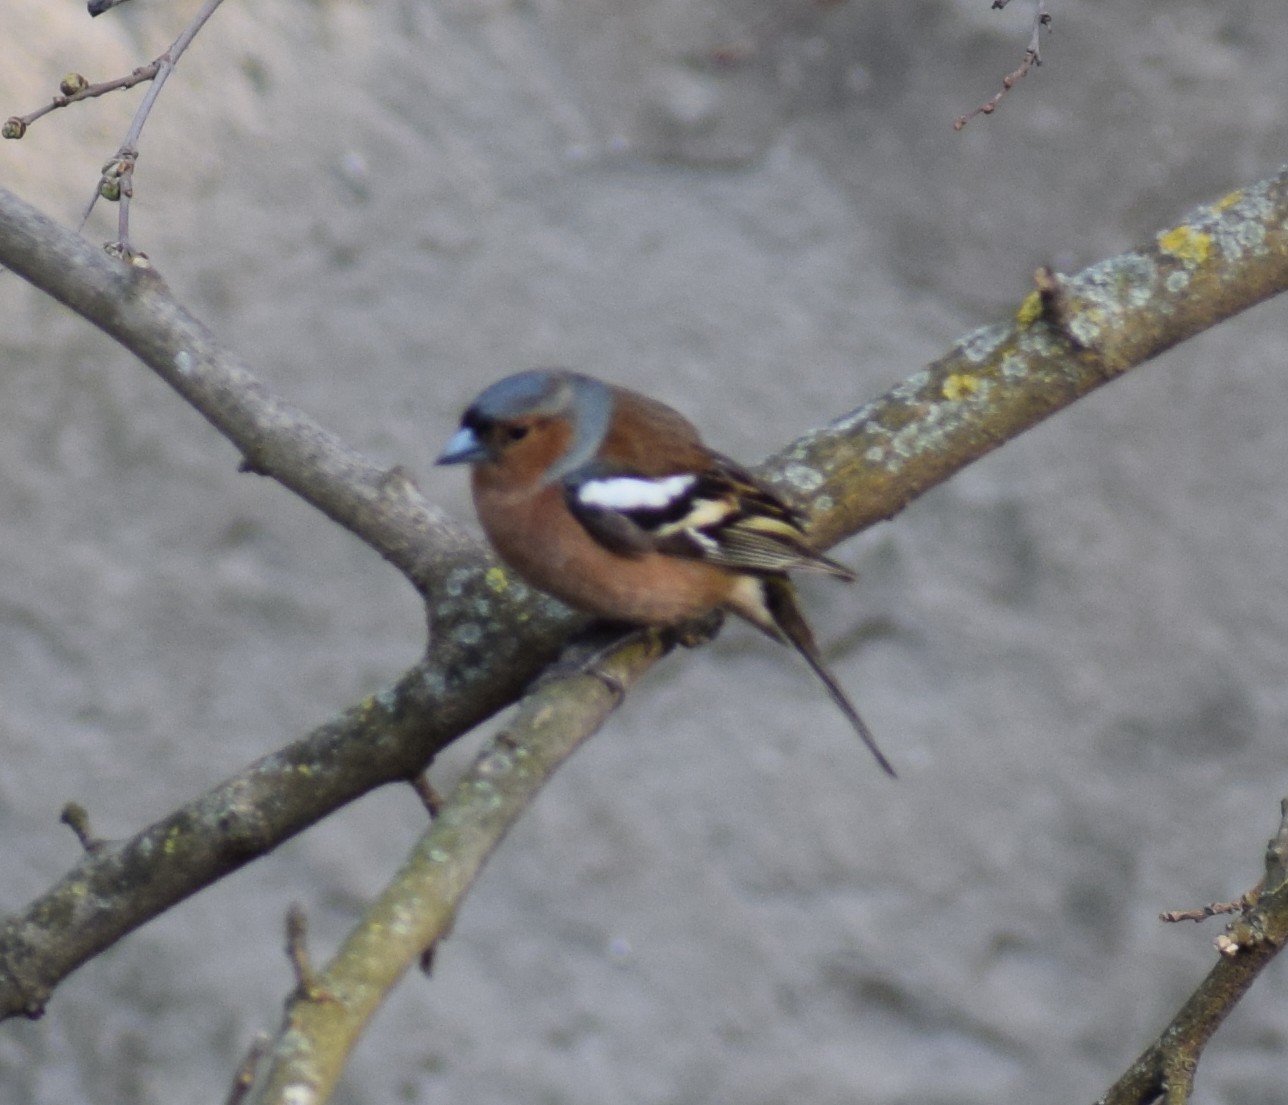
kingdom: Animalia
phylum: Chordata
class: Aves
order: Passeriformes
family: Fringillidae
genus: Fringilla
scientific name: Fringilla coelebs
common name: Common chaffinch
